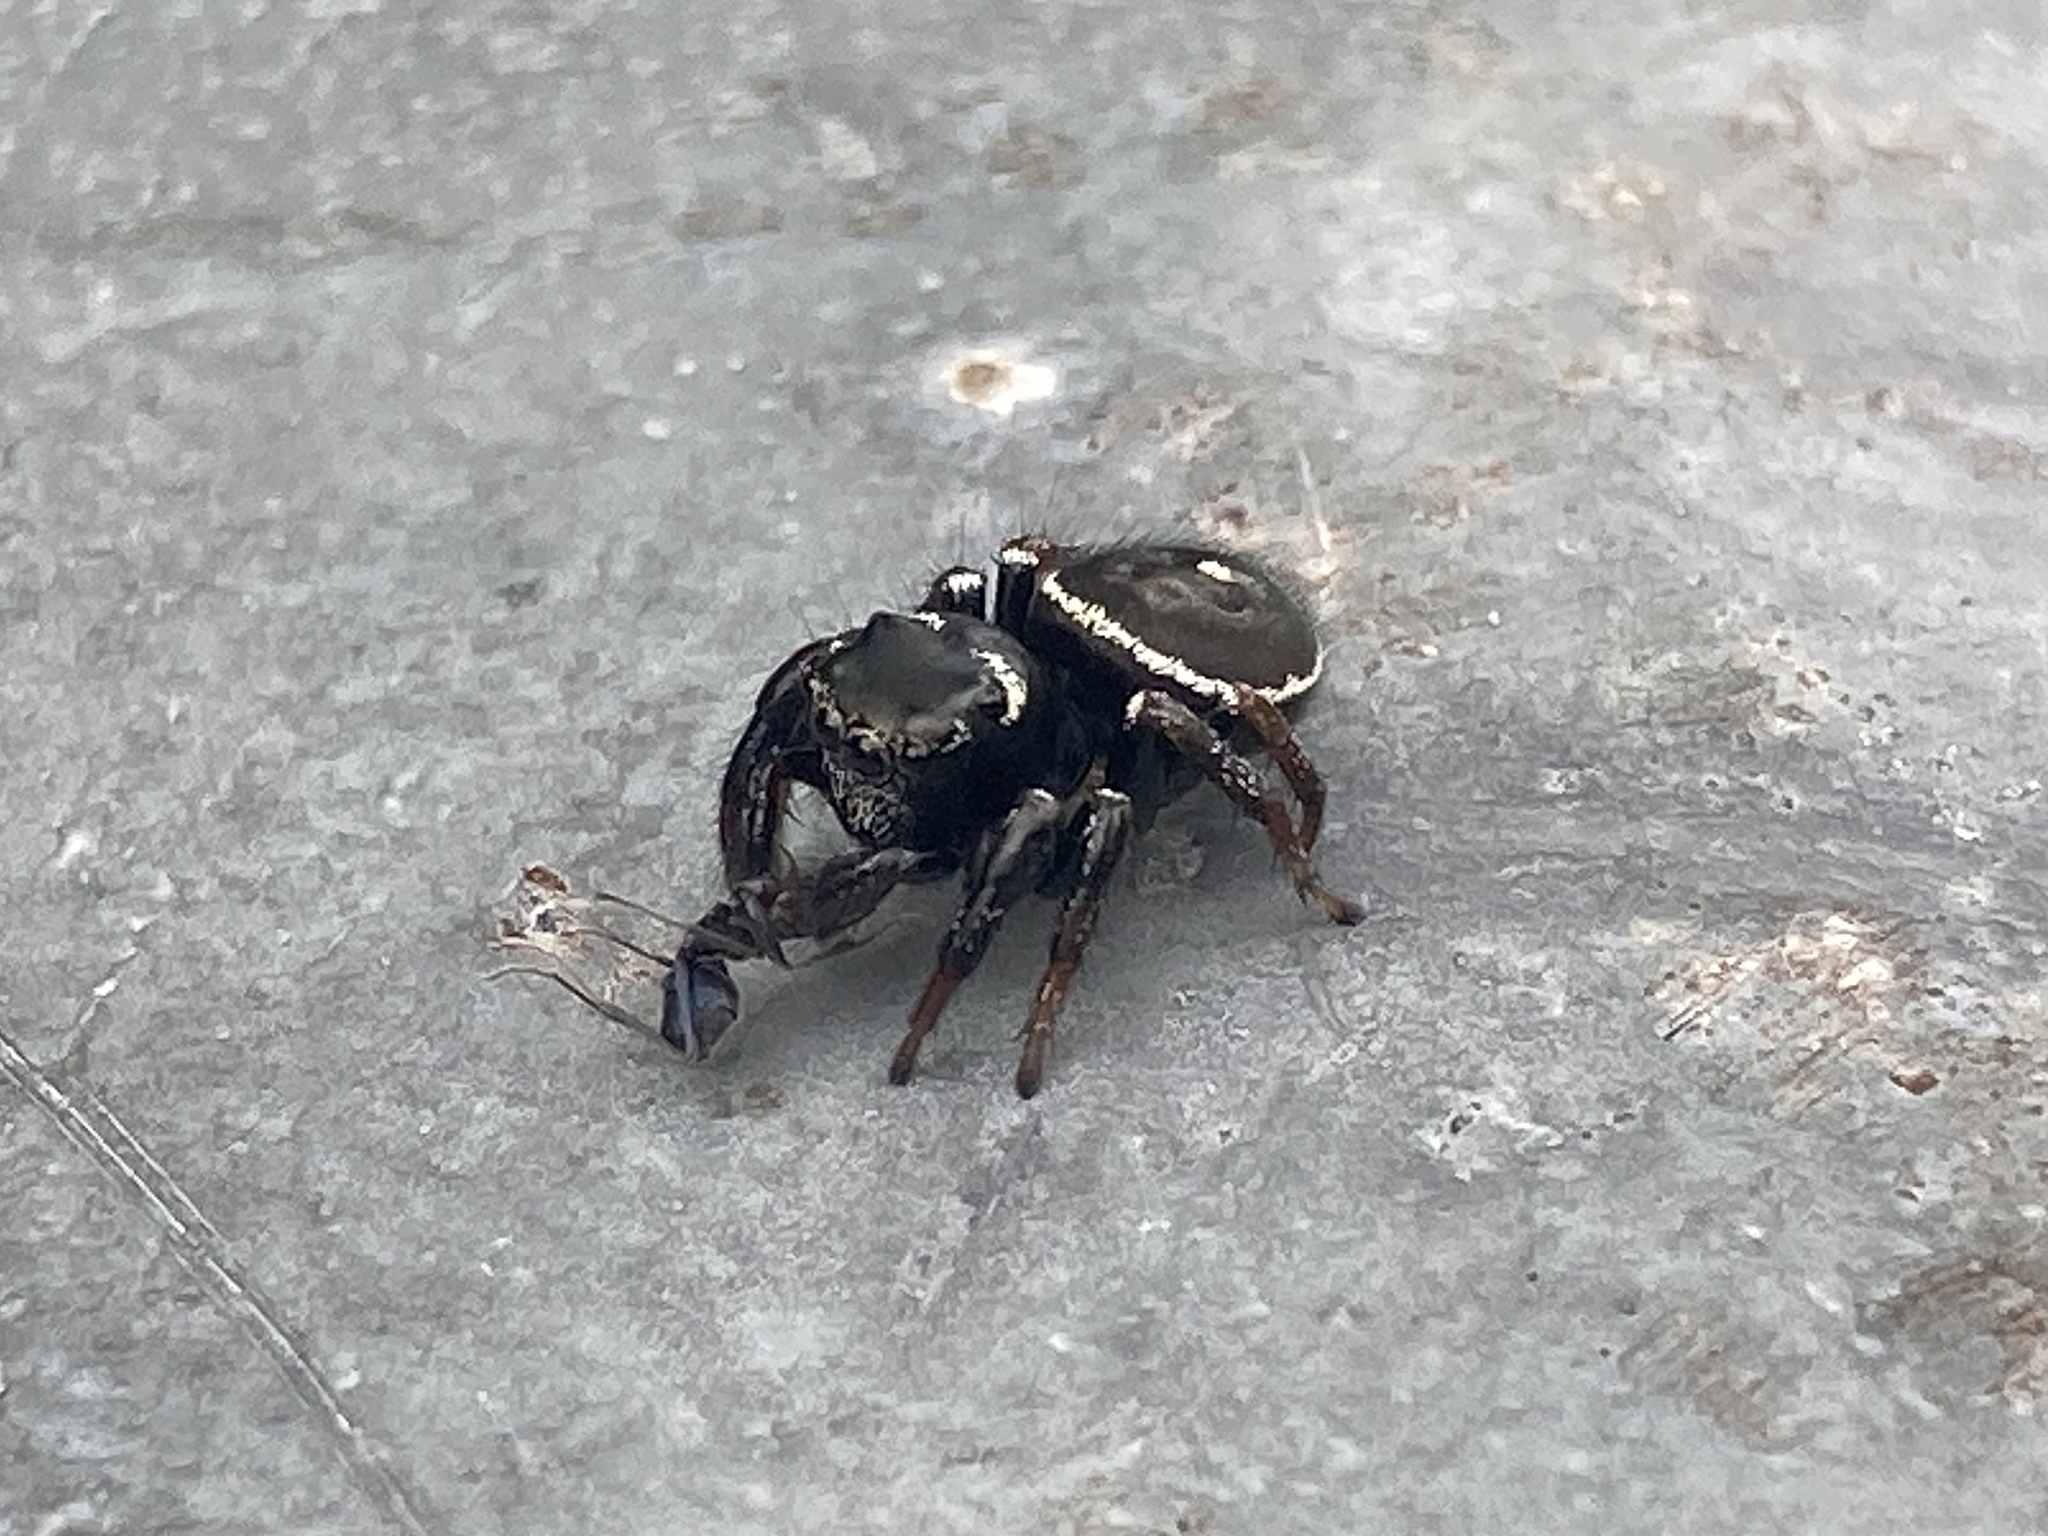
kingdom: Animalia
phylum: Arthropoda
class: Arachnida
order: Araneae
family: Salticidae
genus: Zenodorus
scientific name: Zenodorus orbiculatus
